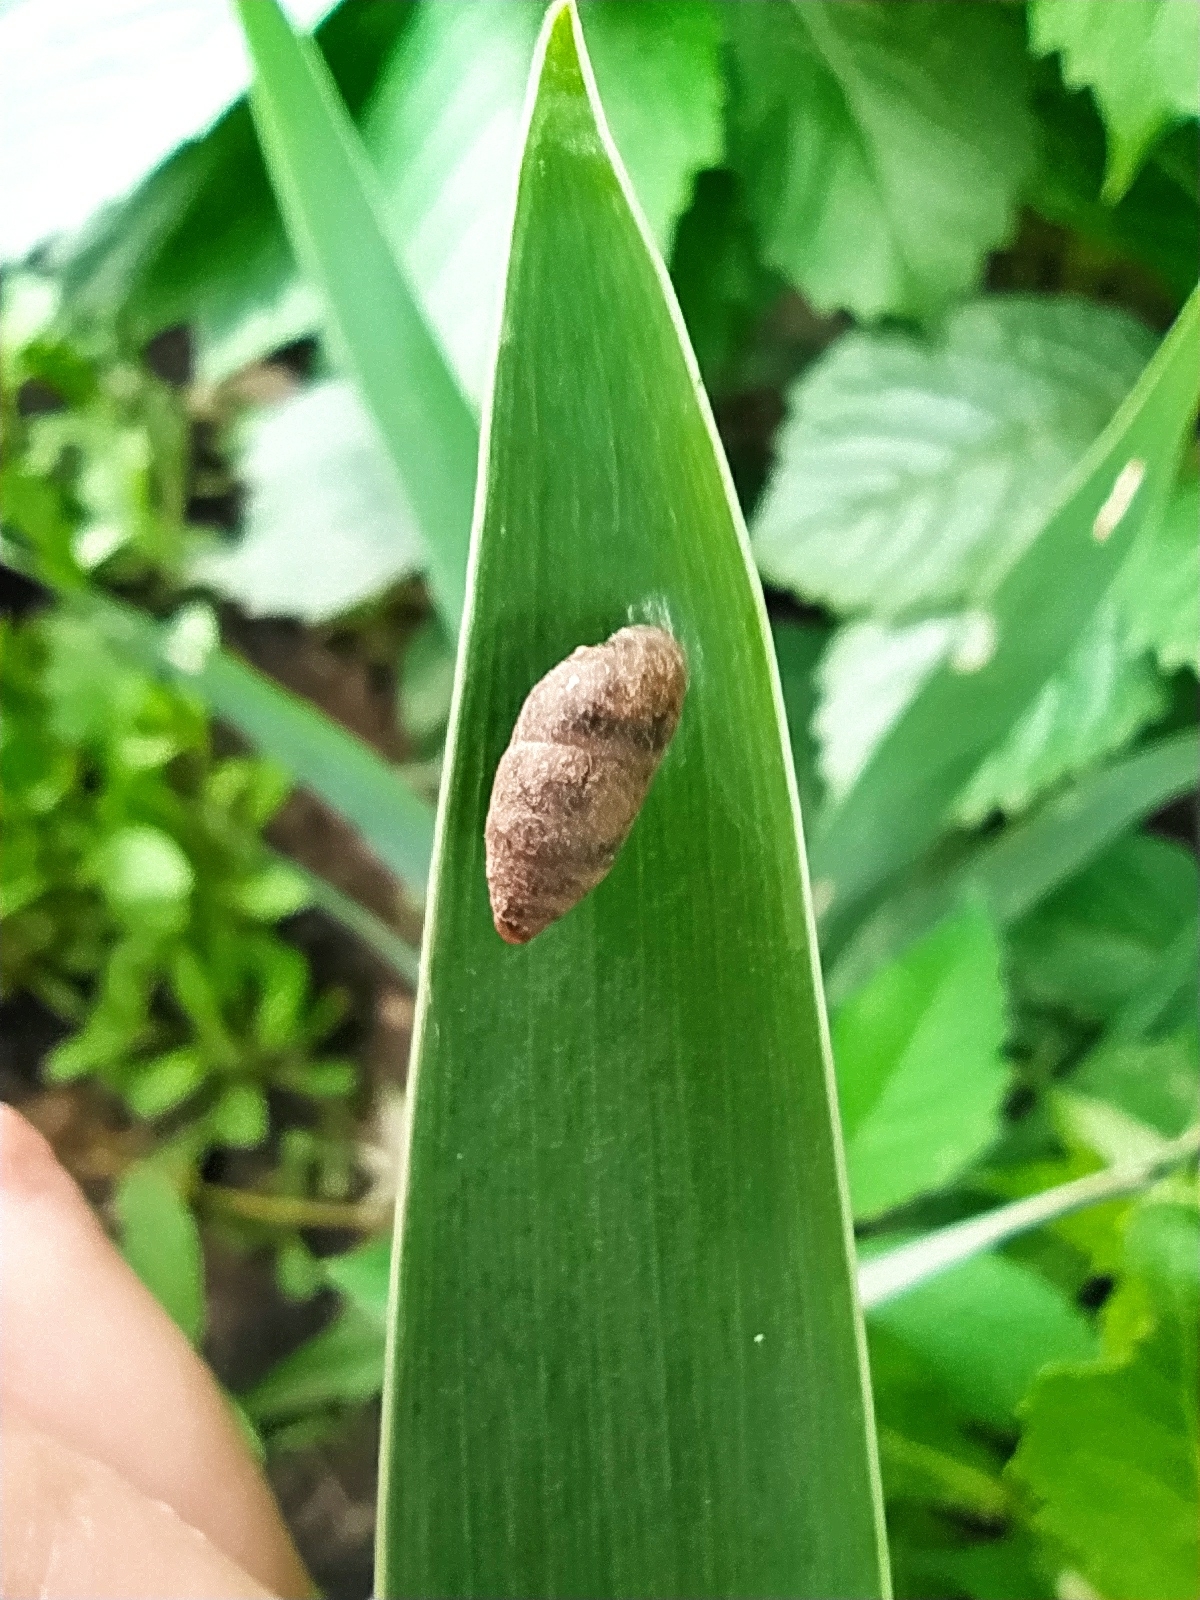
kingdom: Animalia
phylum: Mollusca
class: Gastropoda
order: Stylommatophora
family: Enidae
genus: Chondrula
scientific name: Chondrula tridens
